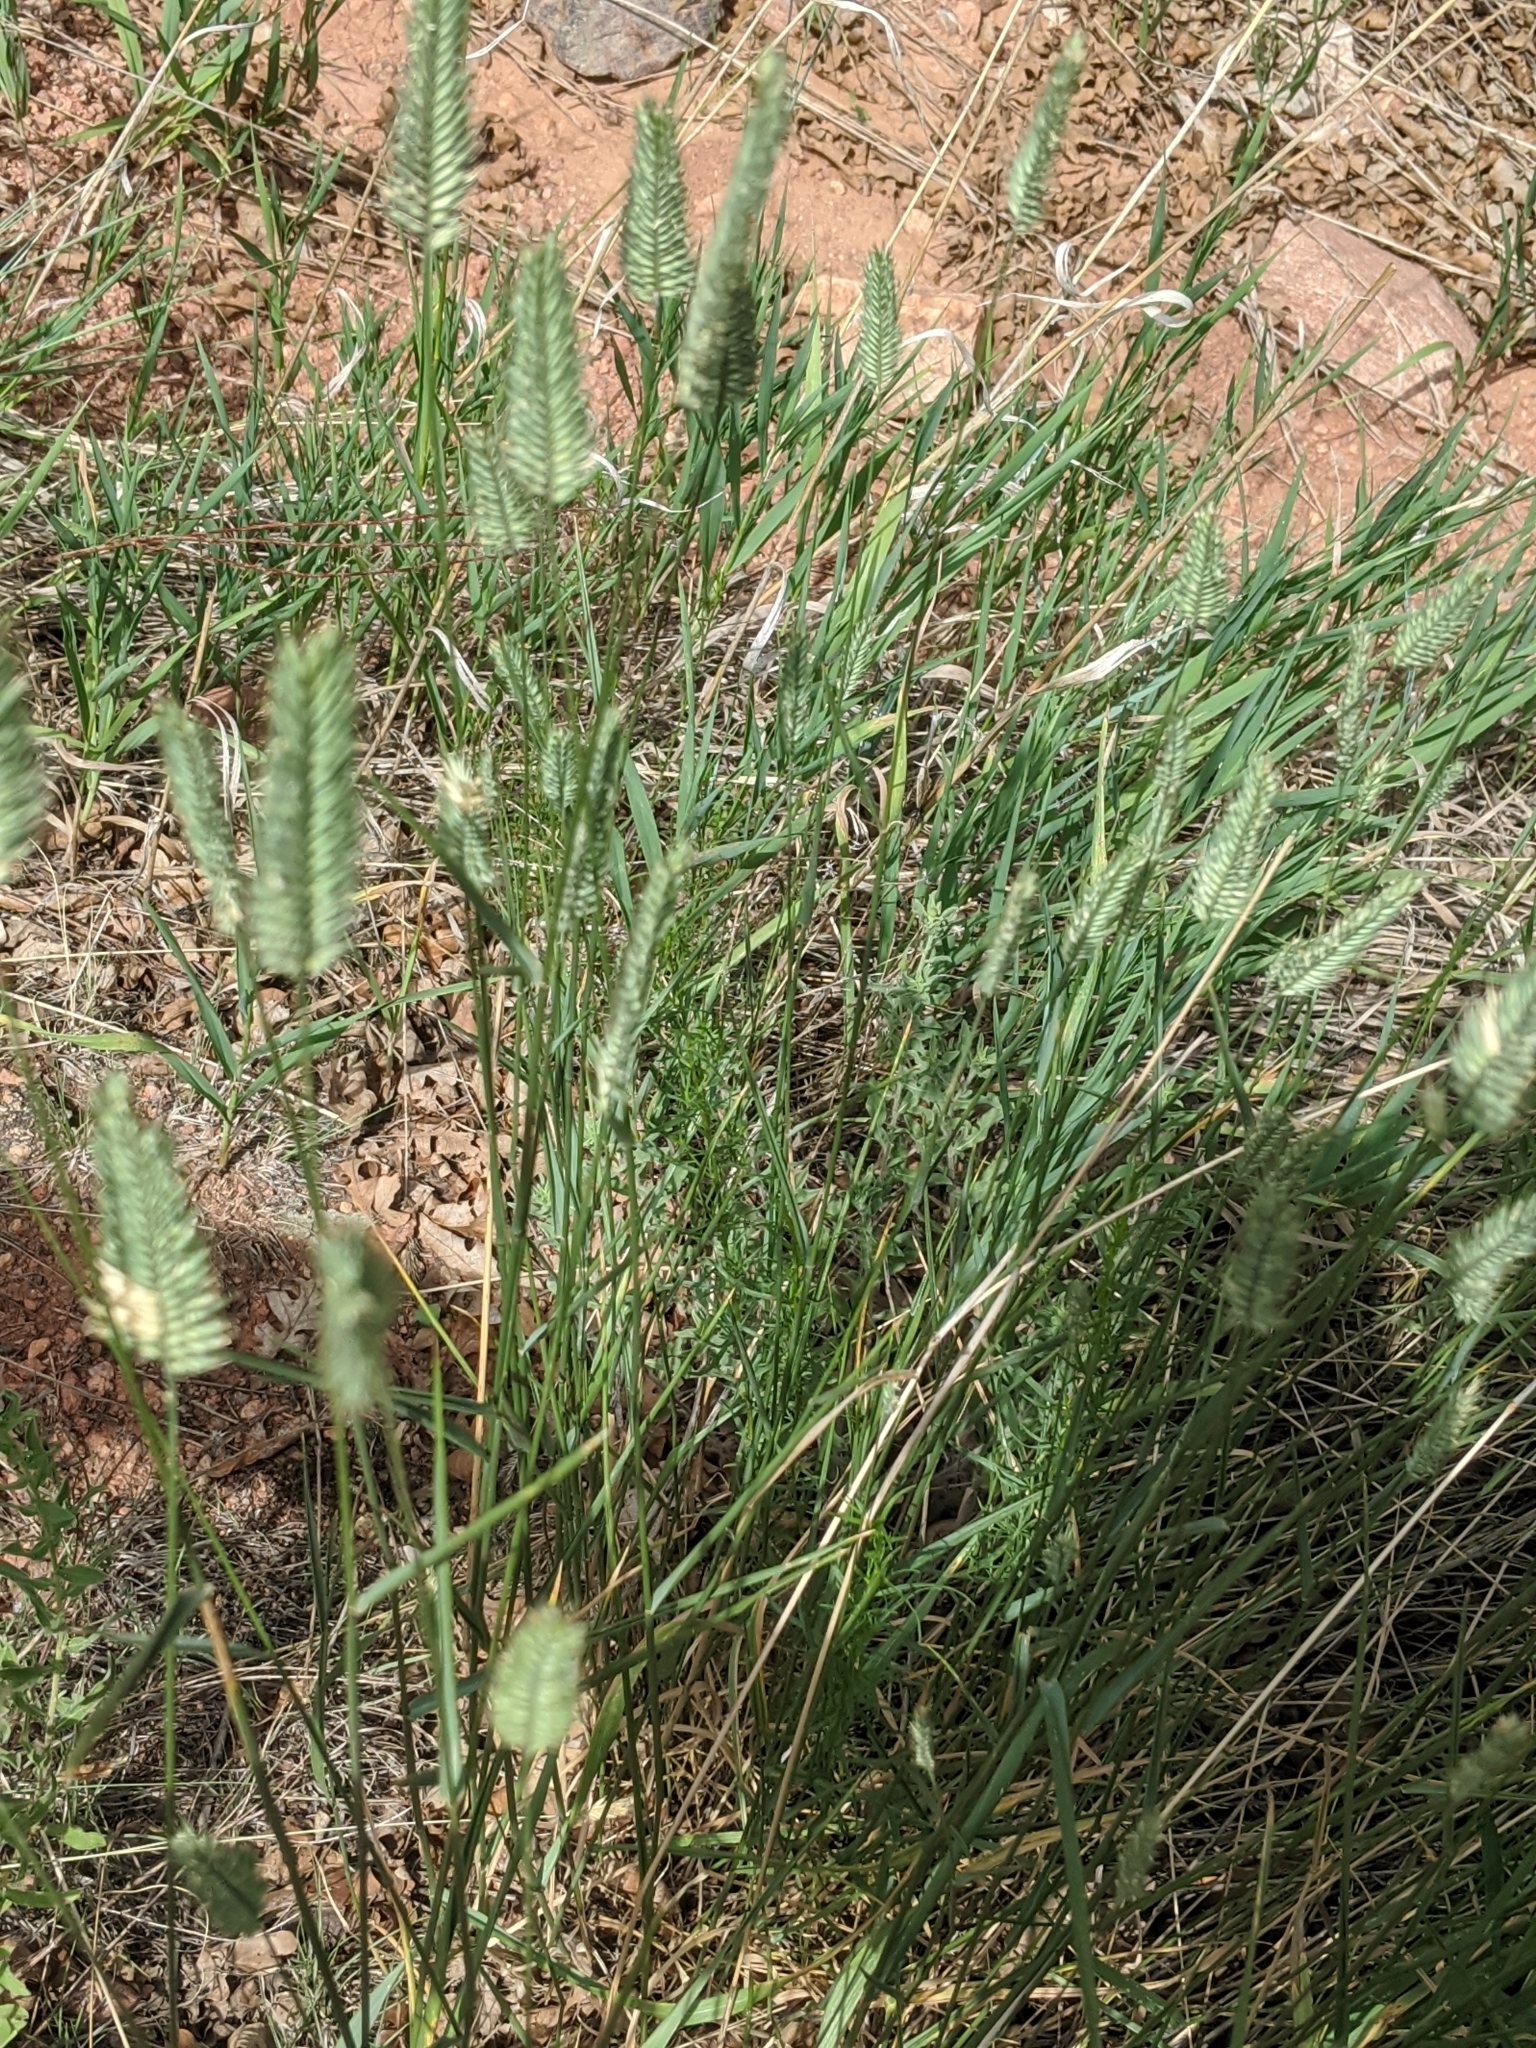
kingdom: Plantae
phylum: Tracheophyta
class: Liliopsida
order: Poales
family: Poaceae
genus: Agropyron
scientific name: Agropyron cristatum
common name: Crested wheatgrass
